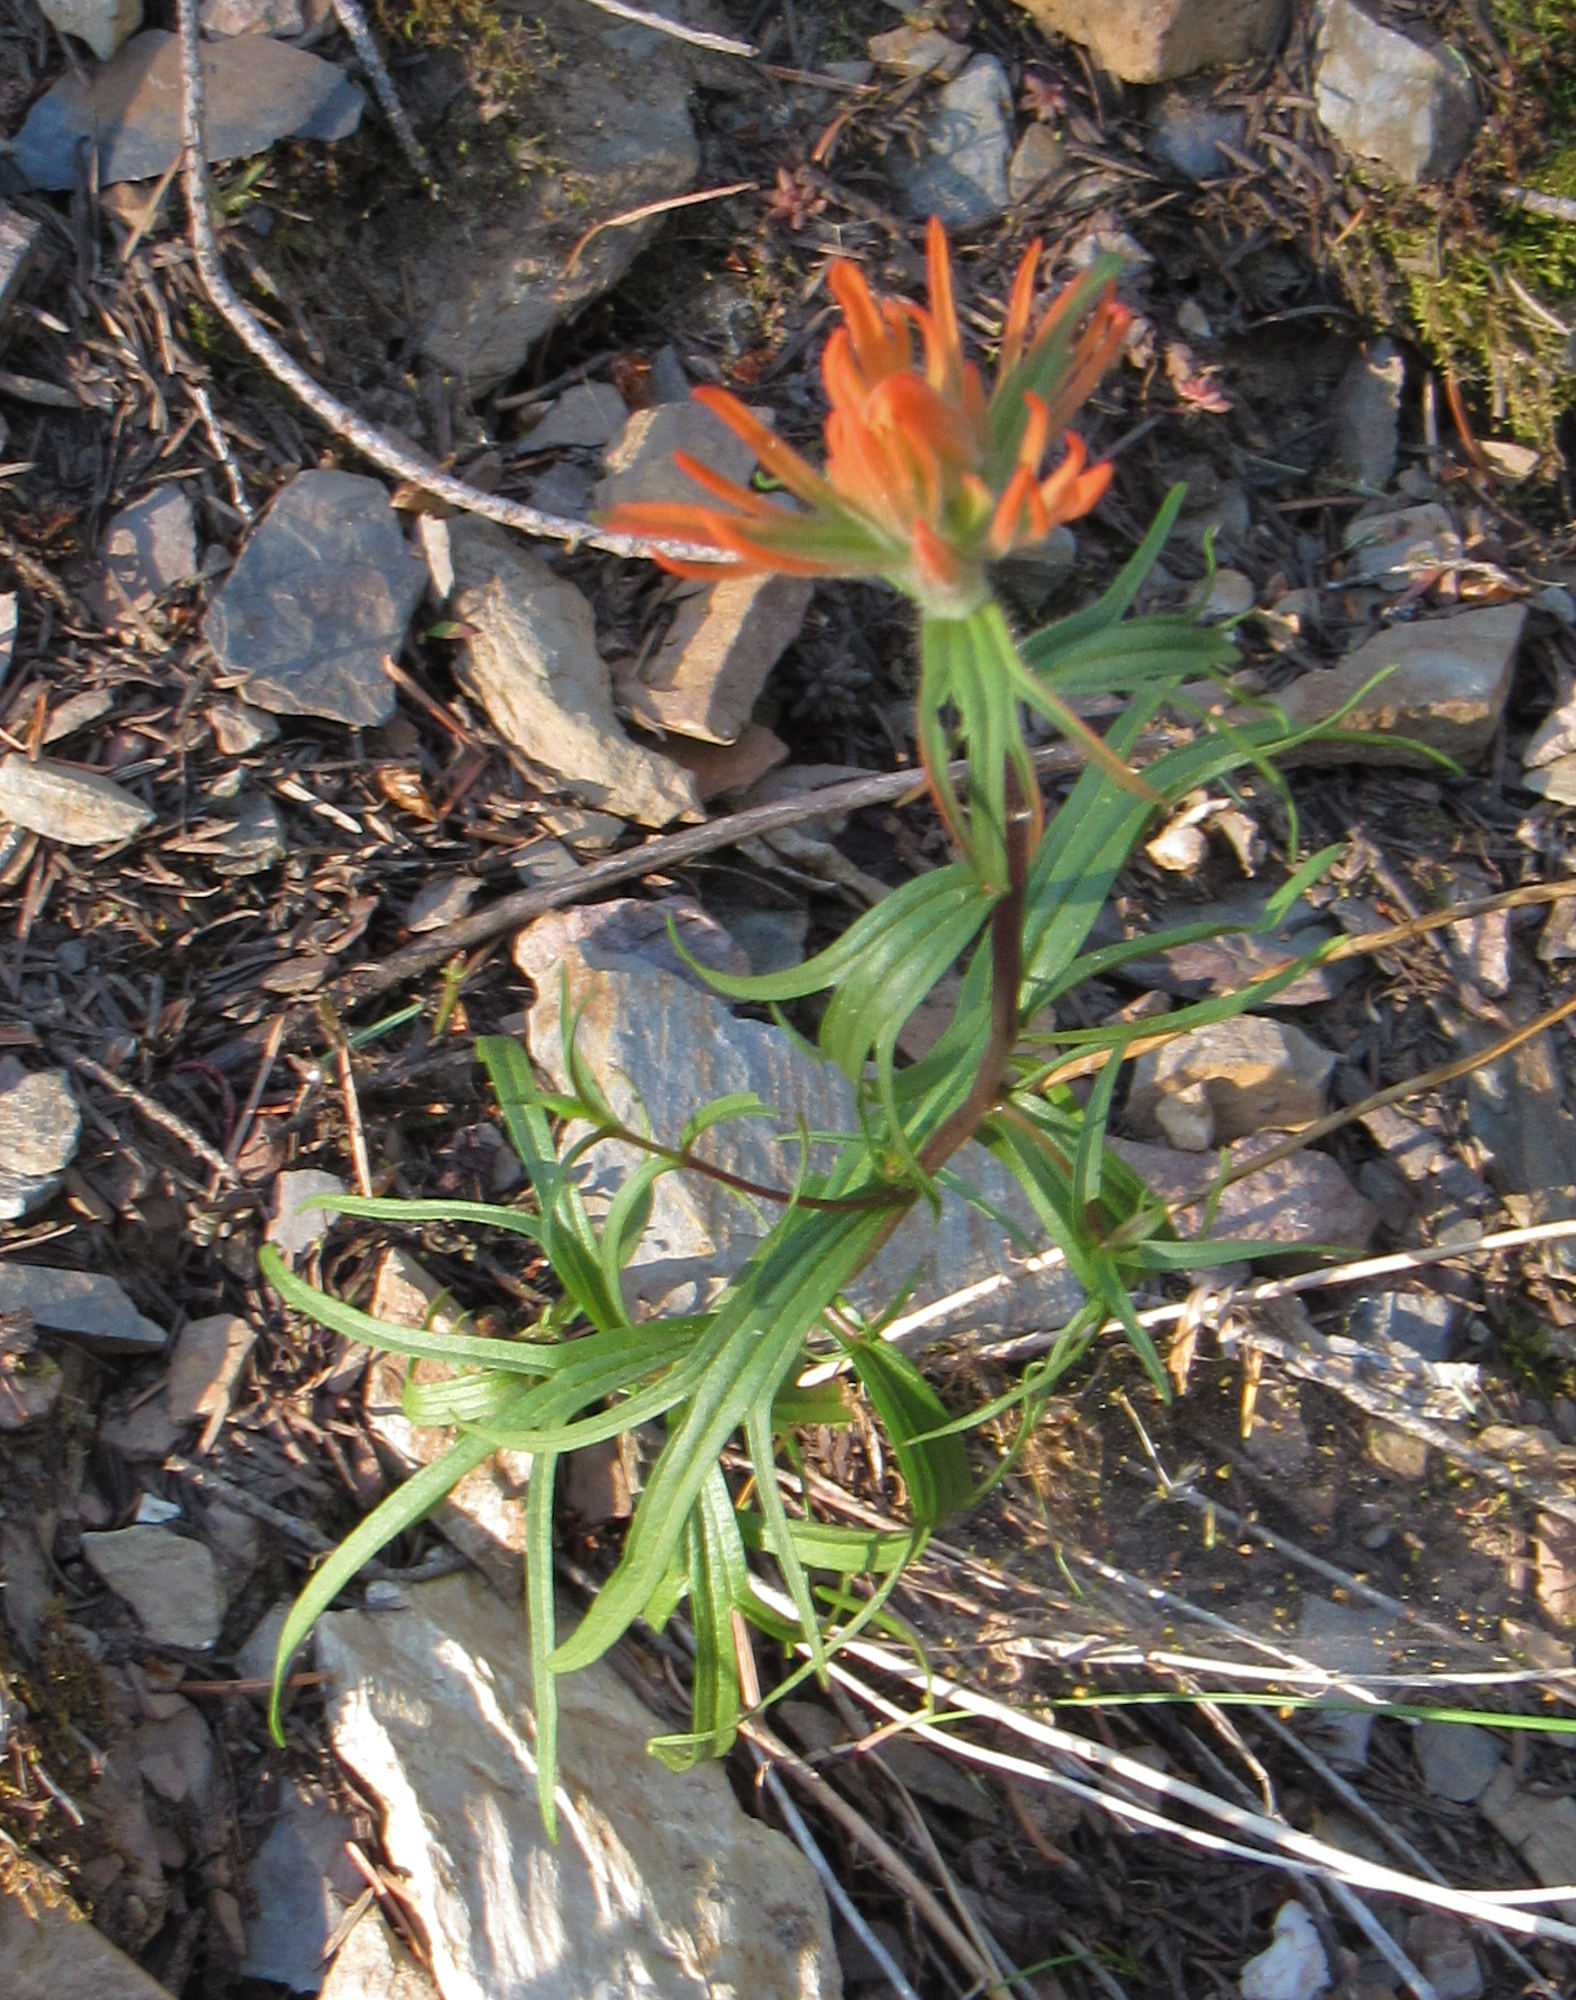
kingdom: Plantae
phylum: Tracheophyta
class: Magnoliopsida
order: Lamiales
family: Orobanchaceae
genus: Castilleja
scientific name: Castilleja crista-galli
